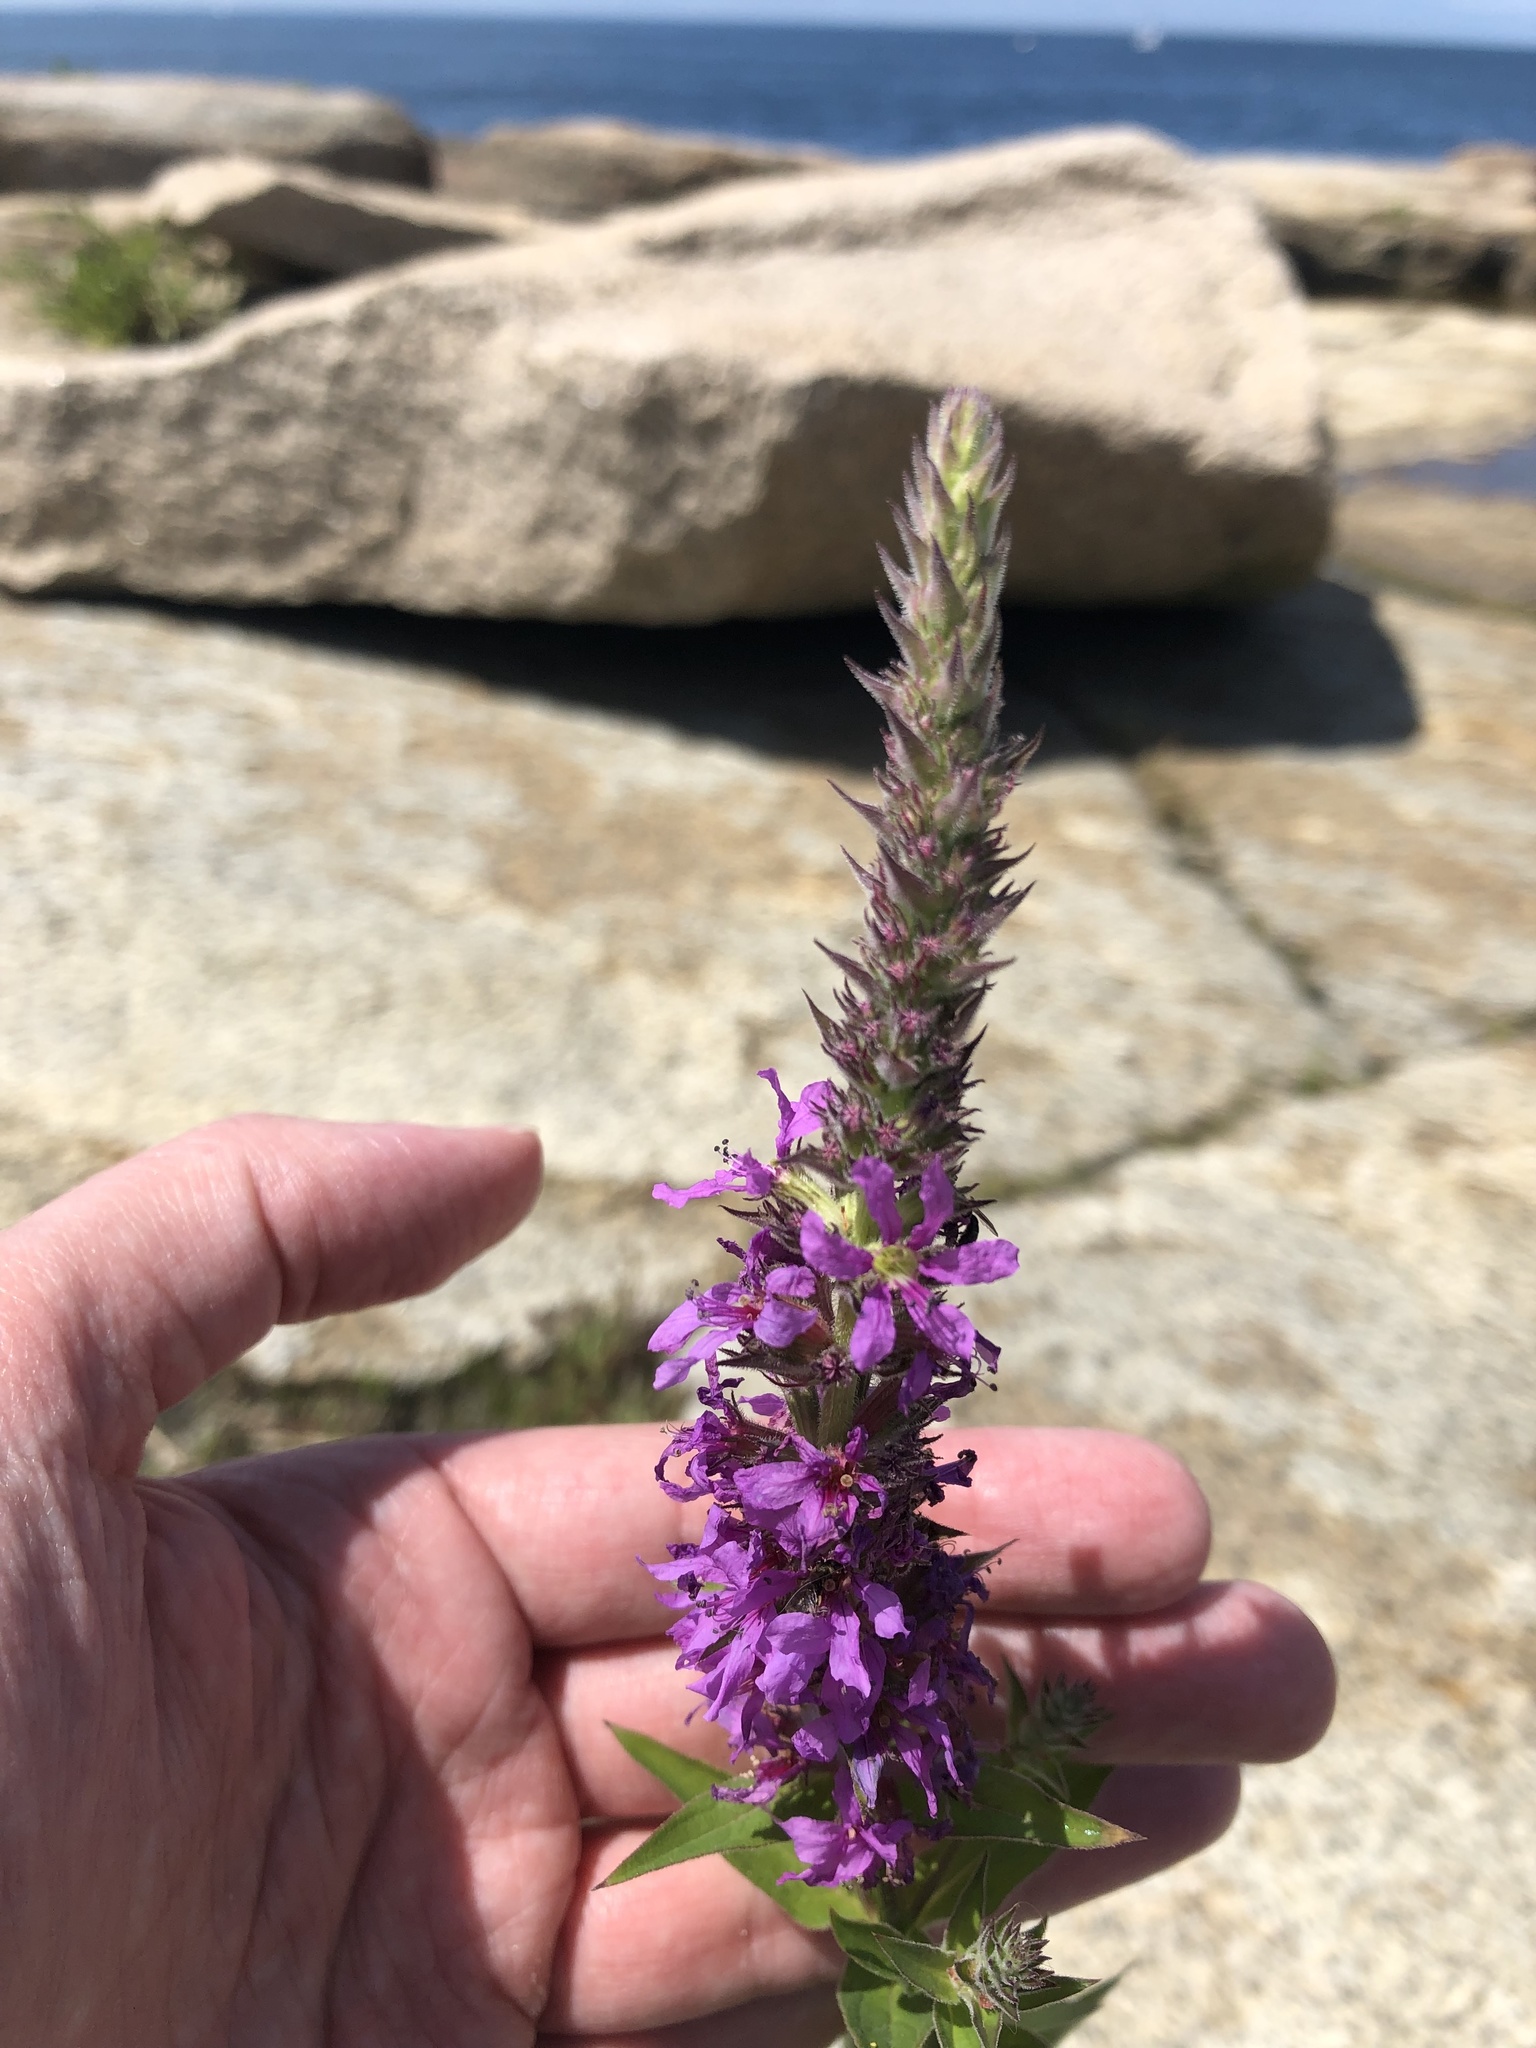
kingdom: Plantae
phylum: Tracheophyta
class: Magnoliopsida
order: Myrtales
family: Lythraceae
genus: Lythrum
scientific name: Lythrum salicaria
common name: Purple loosestrife
